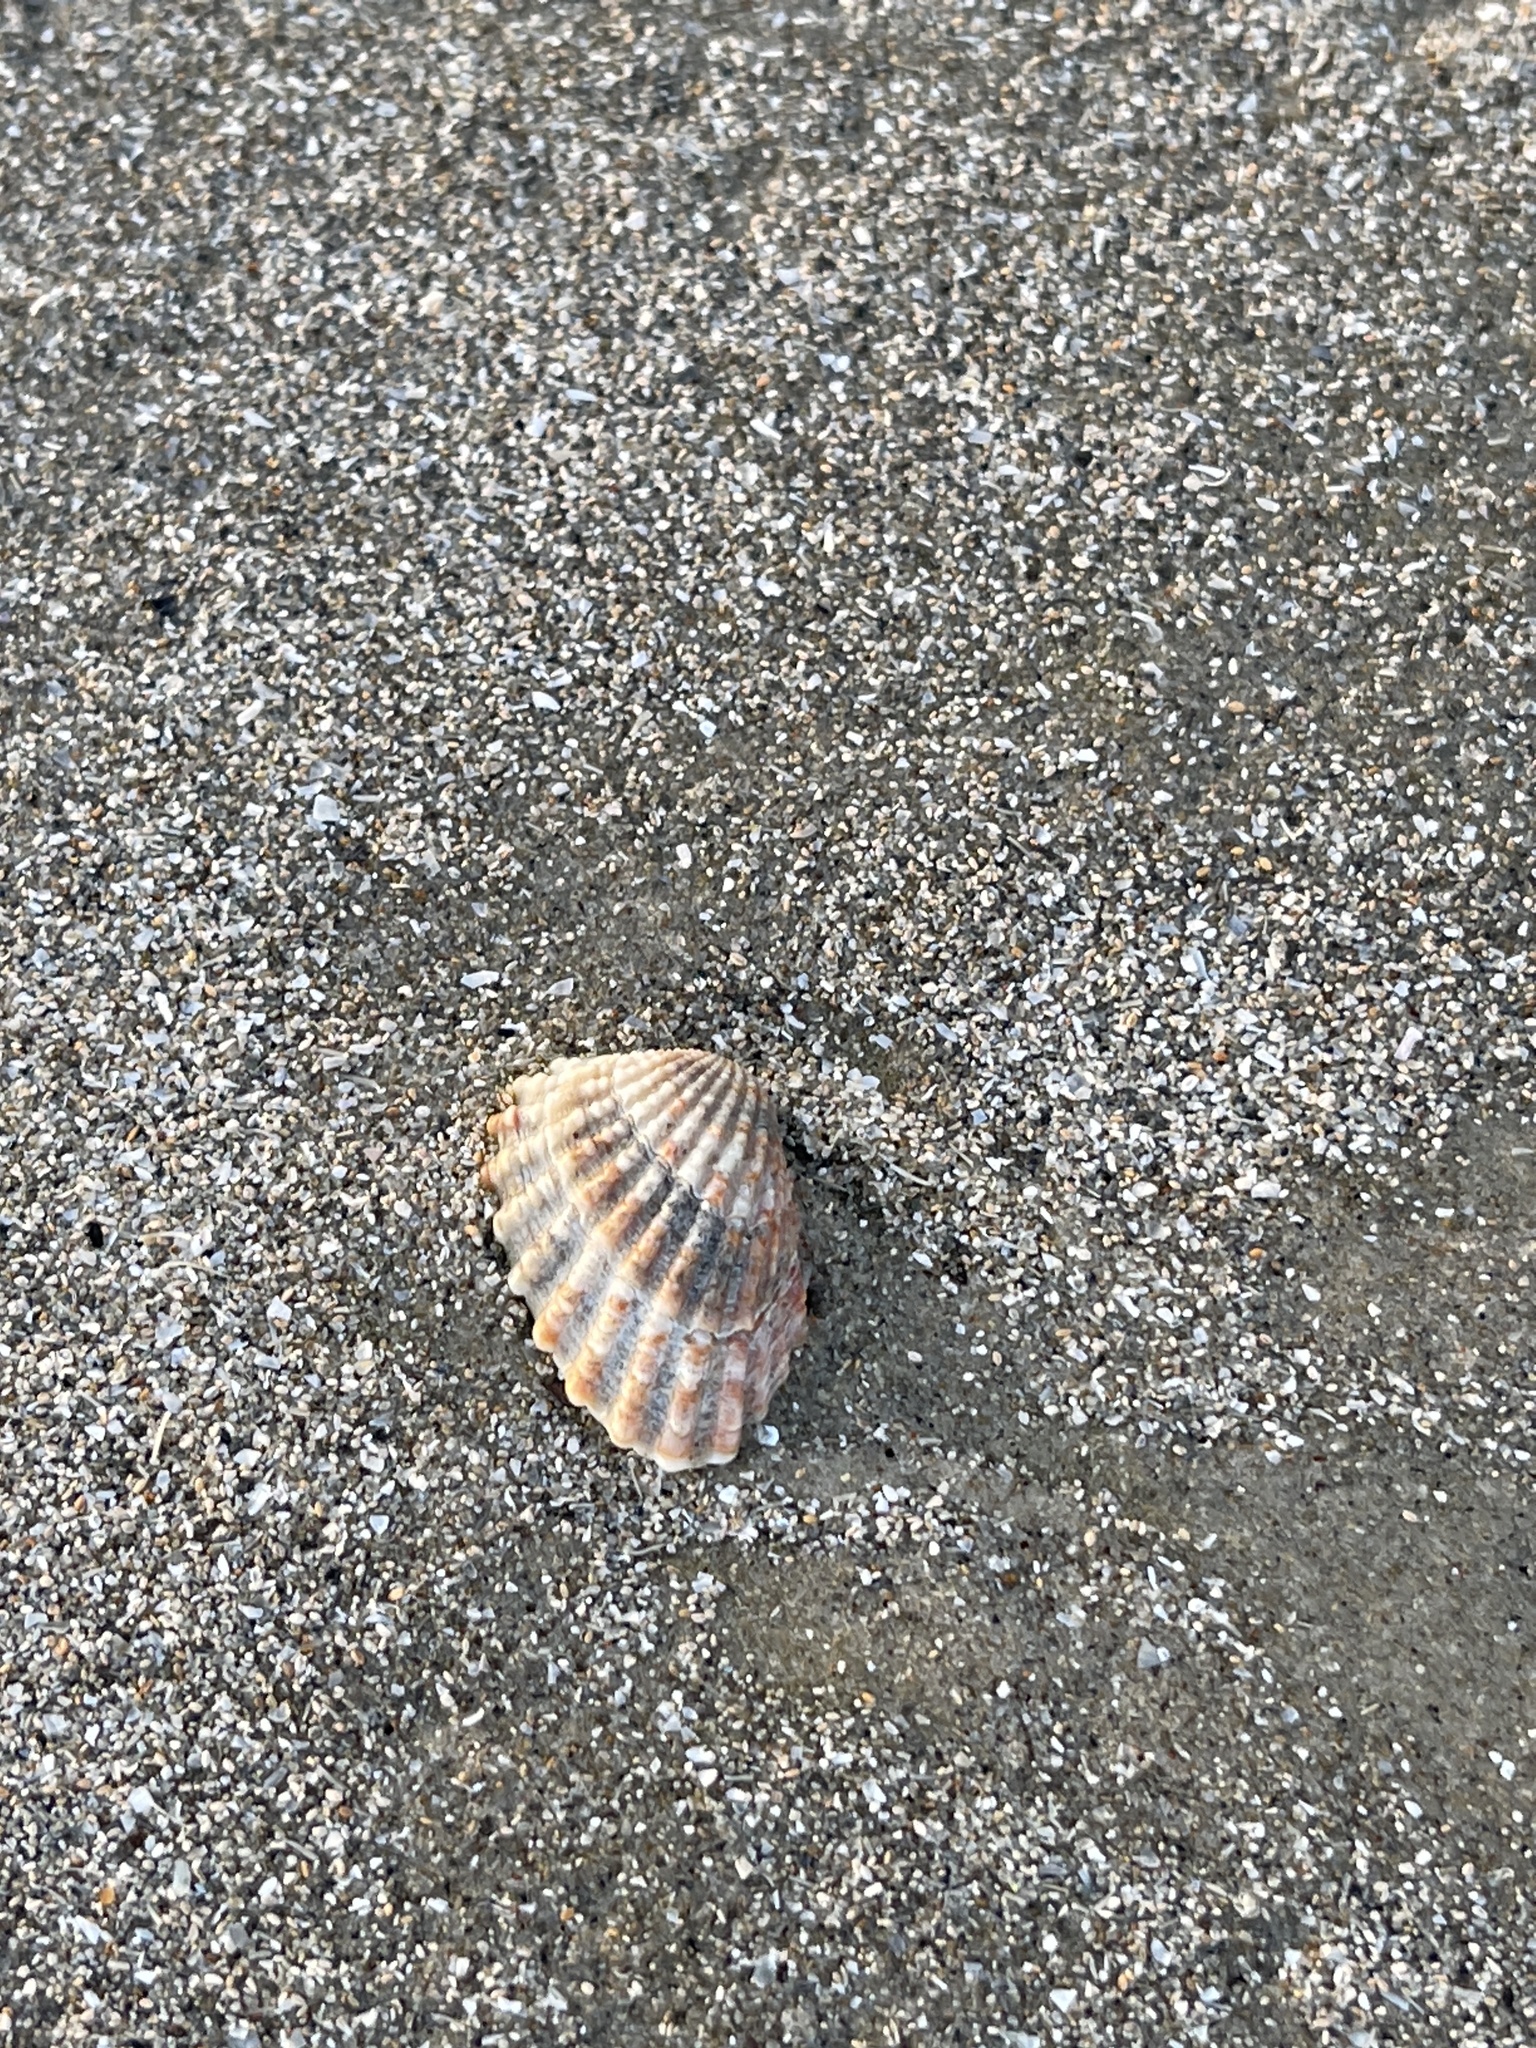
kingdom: Animalia
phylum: Mollusca
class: Bivalvia
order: Carditida
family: Carditidae
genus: Cardites
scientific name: Cardites floridanus
